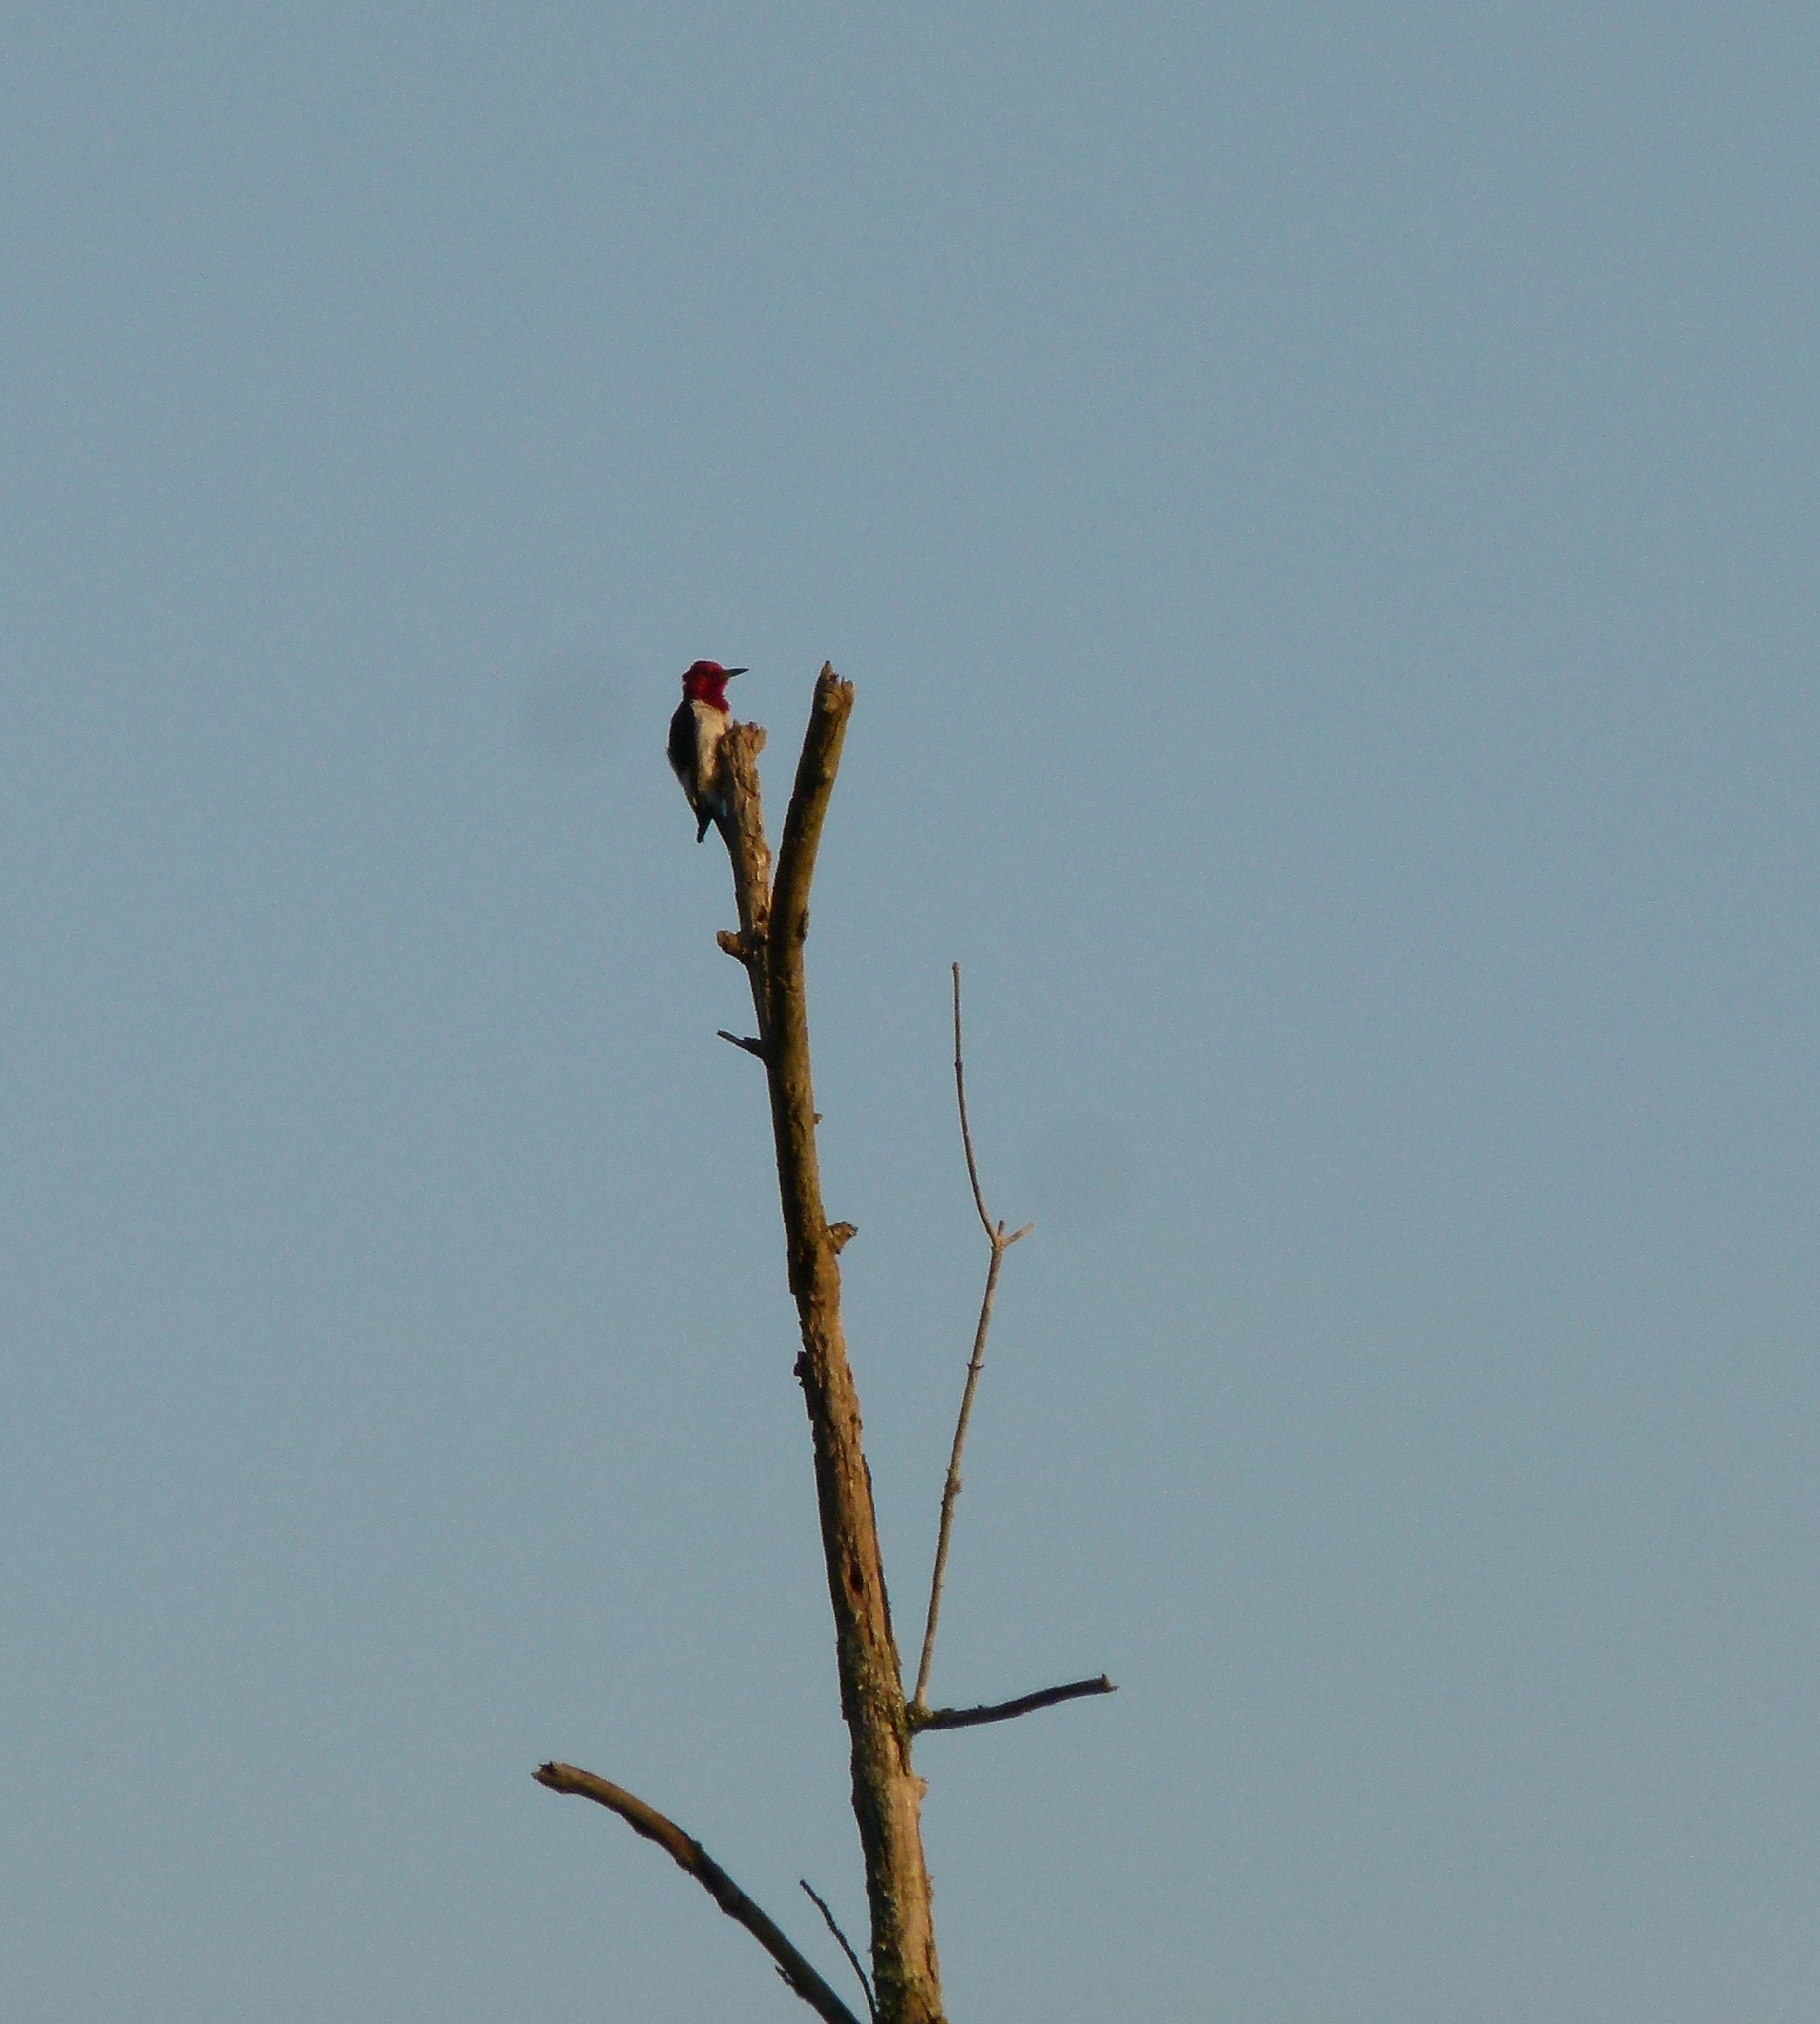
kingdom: Animalia
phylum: Chordata
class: Aves
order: Piciformes
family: Picidae
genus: Melanerpes
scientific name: Melanerpes erythrocephalus
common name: Red-headed woodpecker
